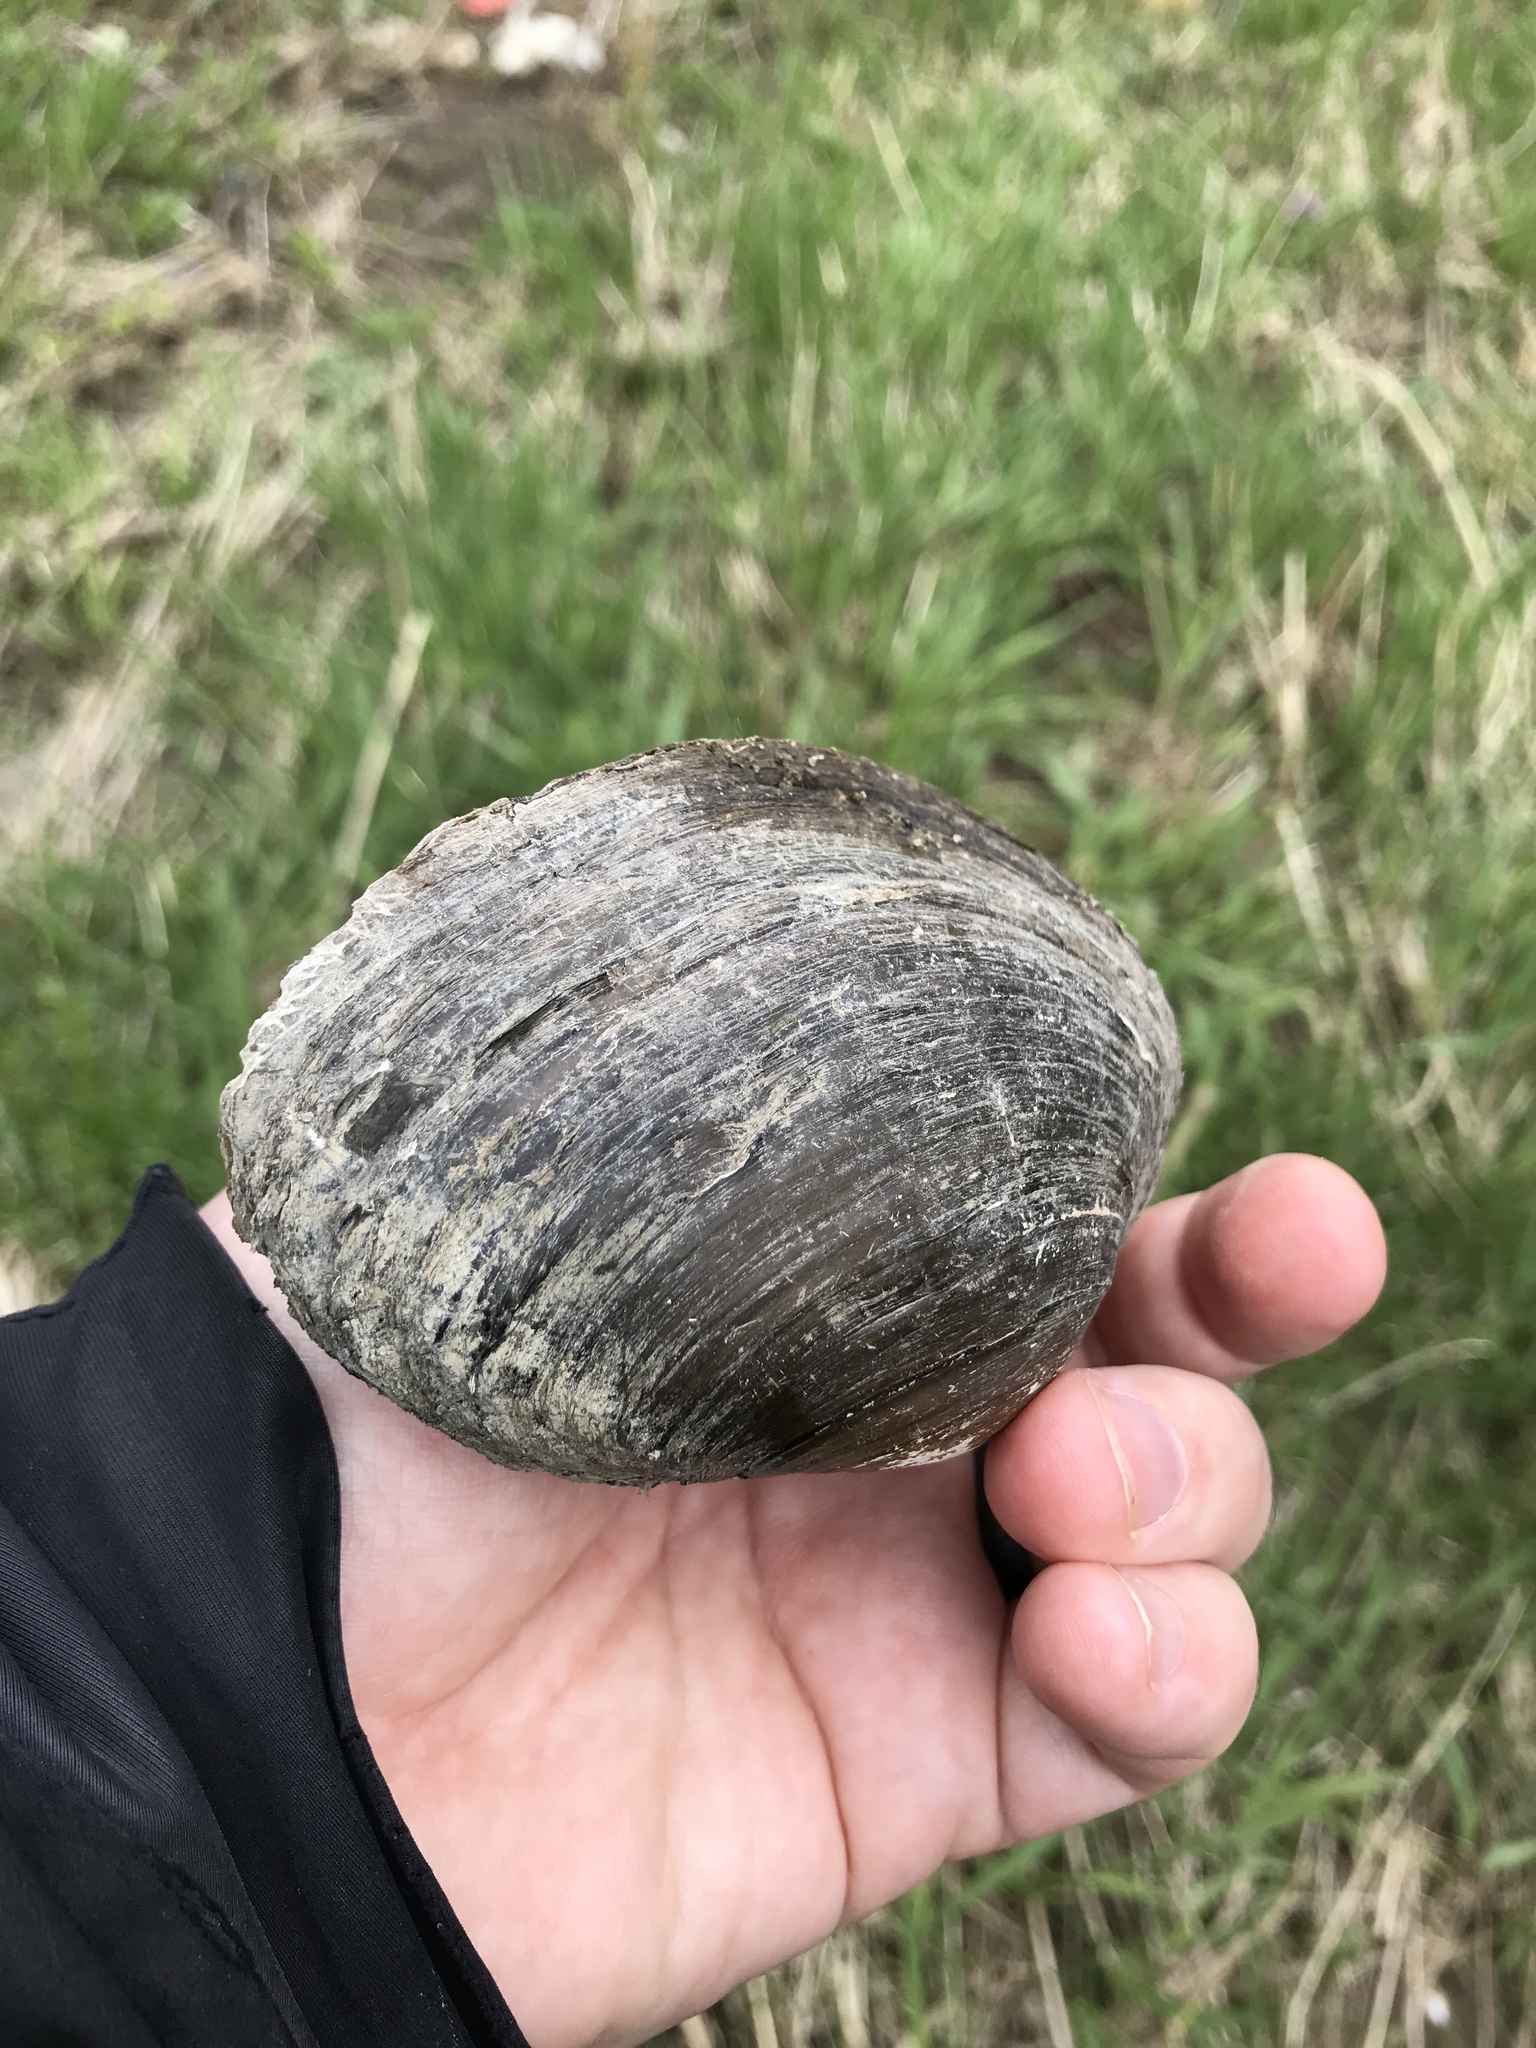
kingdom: Animalia
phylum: Mollusca
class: Bivalvia
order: Unionida
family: Unionidae
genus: Pyganodon
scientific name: Pyganodon grandis
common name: Giant floater
